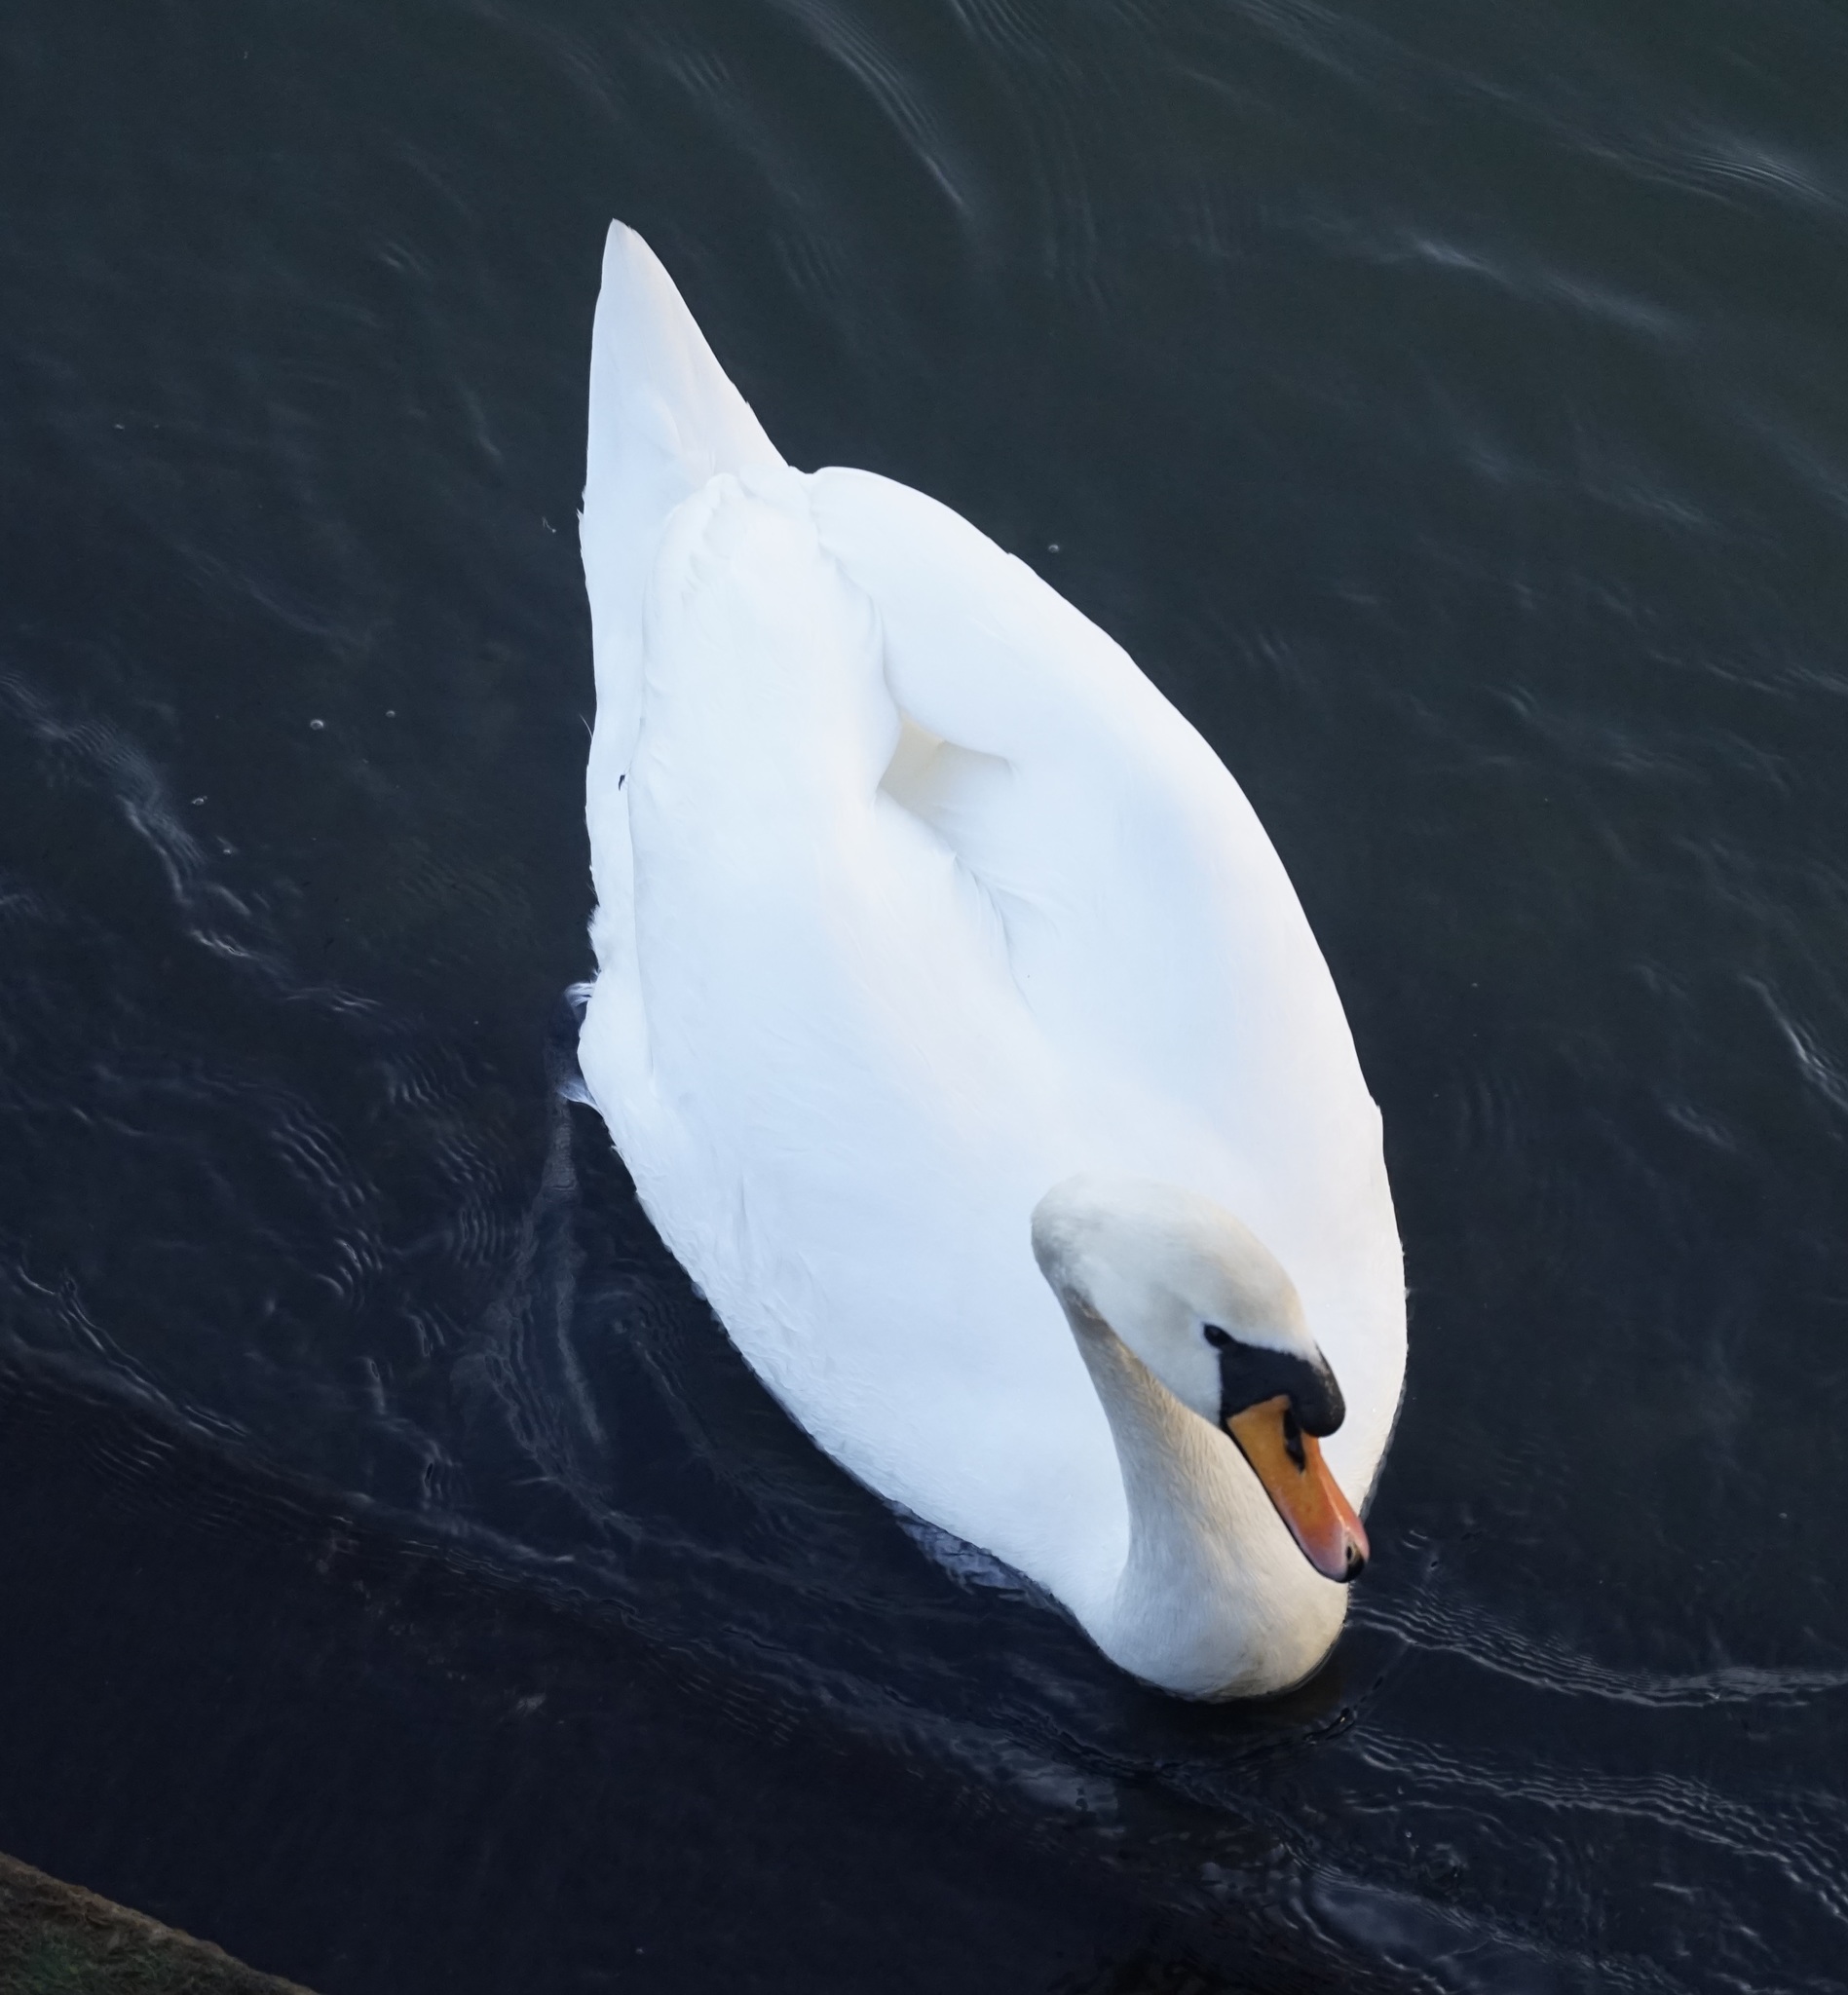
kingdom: Animalia
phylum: Chordata
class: Aves
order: Anseriformes
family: Anatidae
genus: Cygnus
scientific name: Cygnus olor
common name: Mute swan
